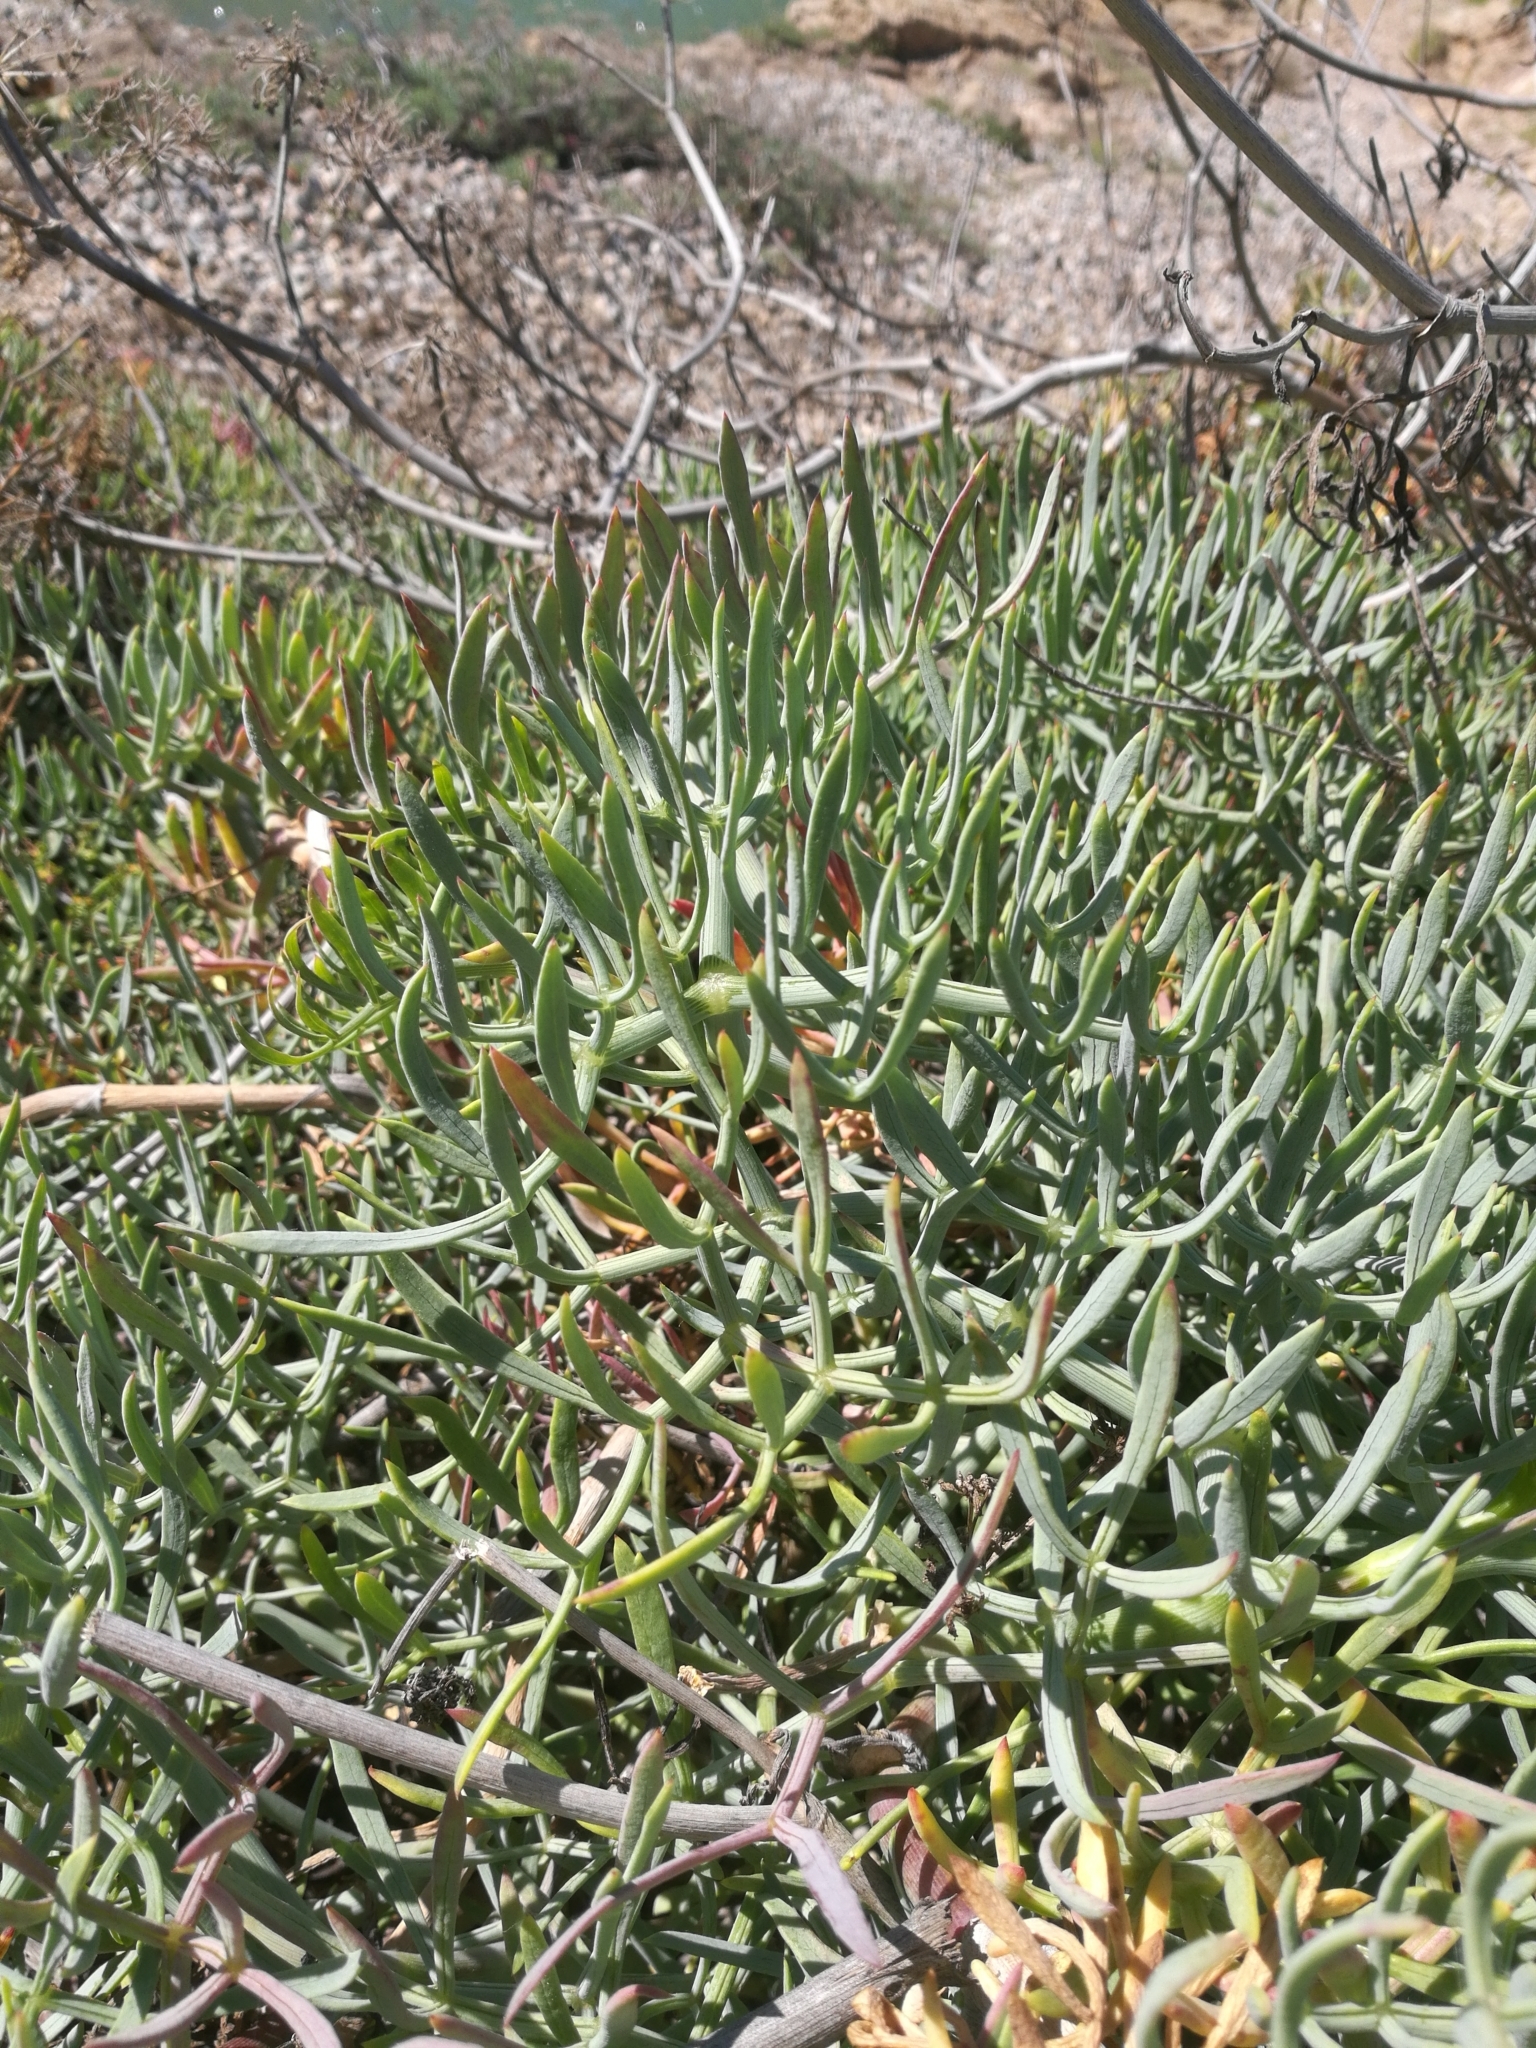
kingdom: Plantae
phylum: Tracheophyta
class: Magnoliopsida
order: Apiales
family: Apiaceae
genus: Crithmum
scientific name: Crithmum maritimum
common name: Rock samphire
